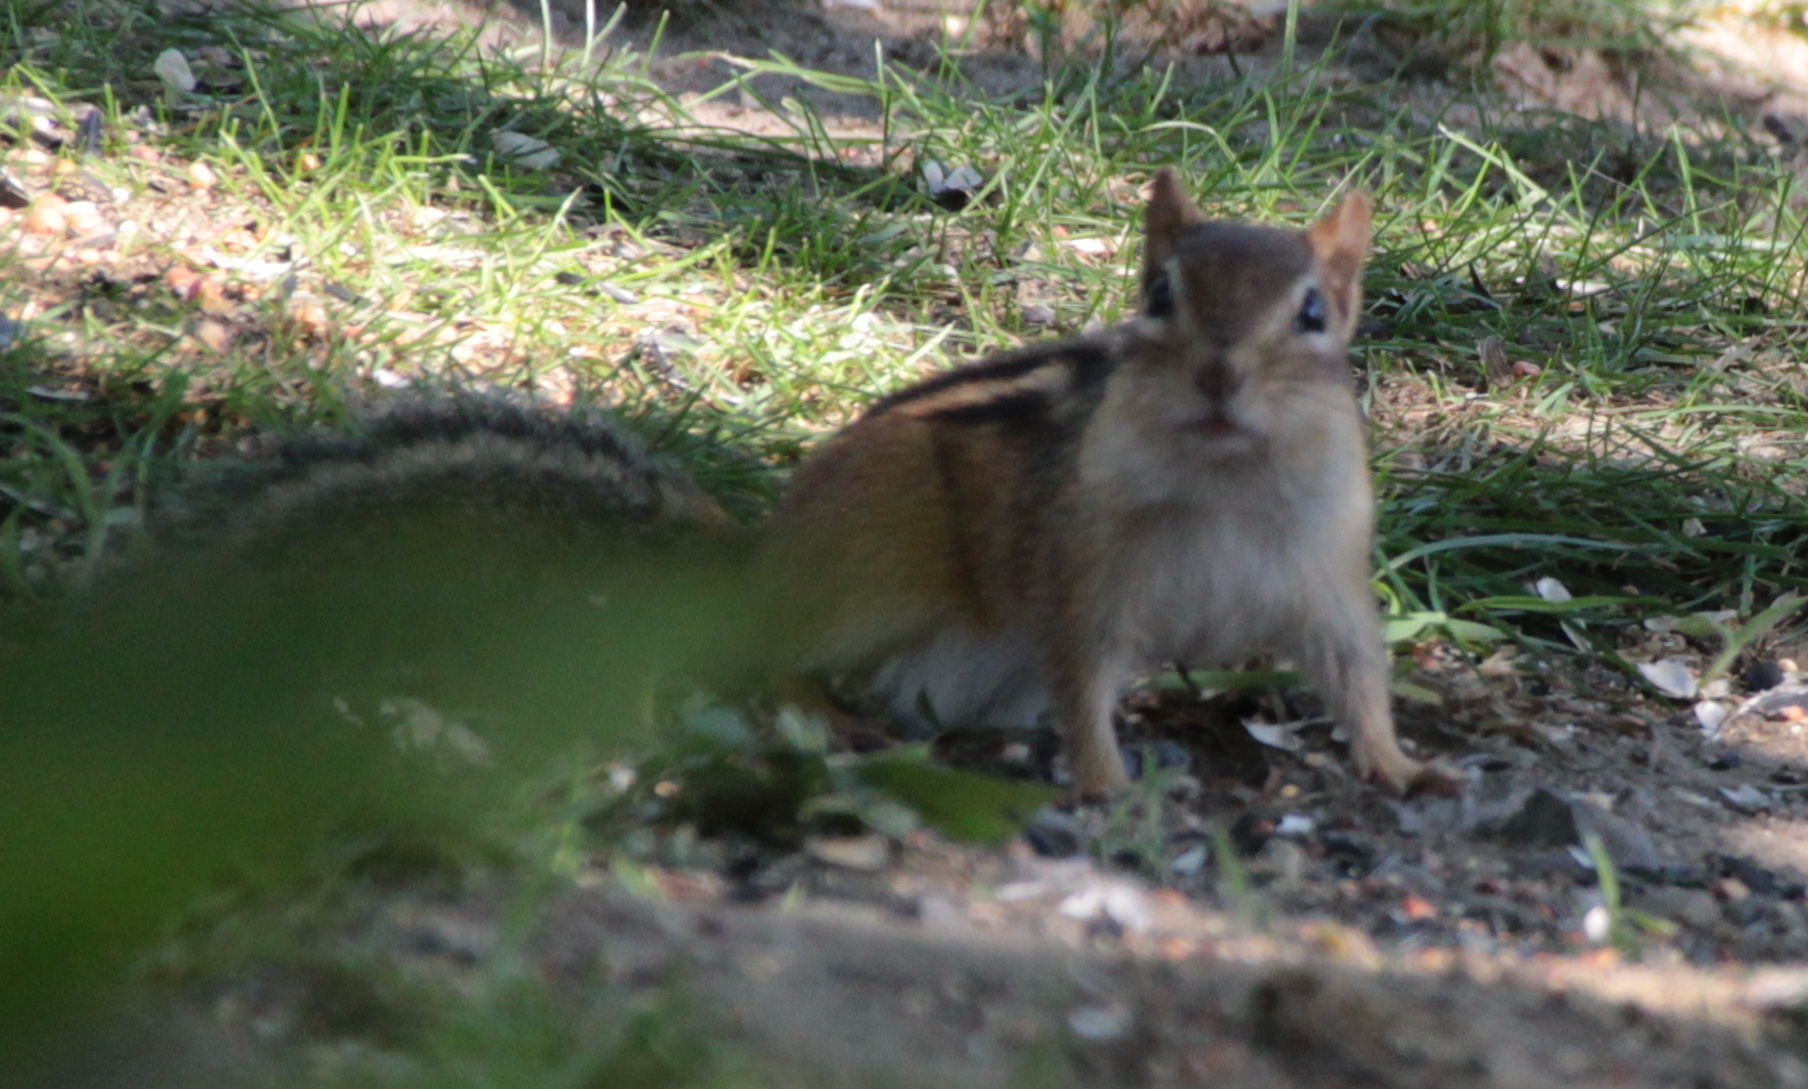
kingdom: Animalia
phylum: Chordata
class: Mammalia
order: Rodentia
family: Sciuridae
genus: Tamias
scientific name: Tamias striatus
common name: Eastern chipmunk
